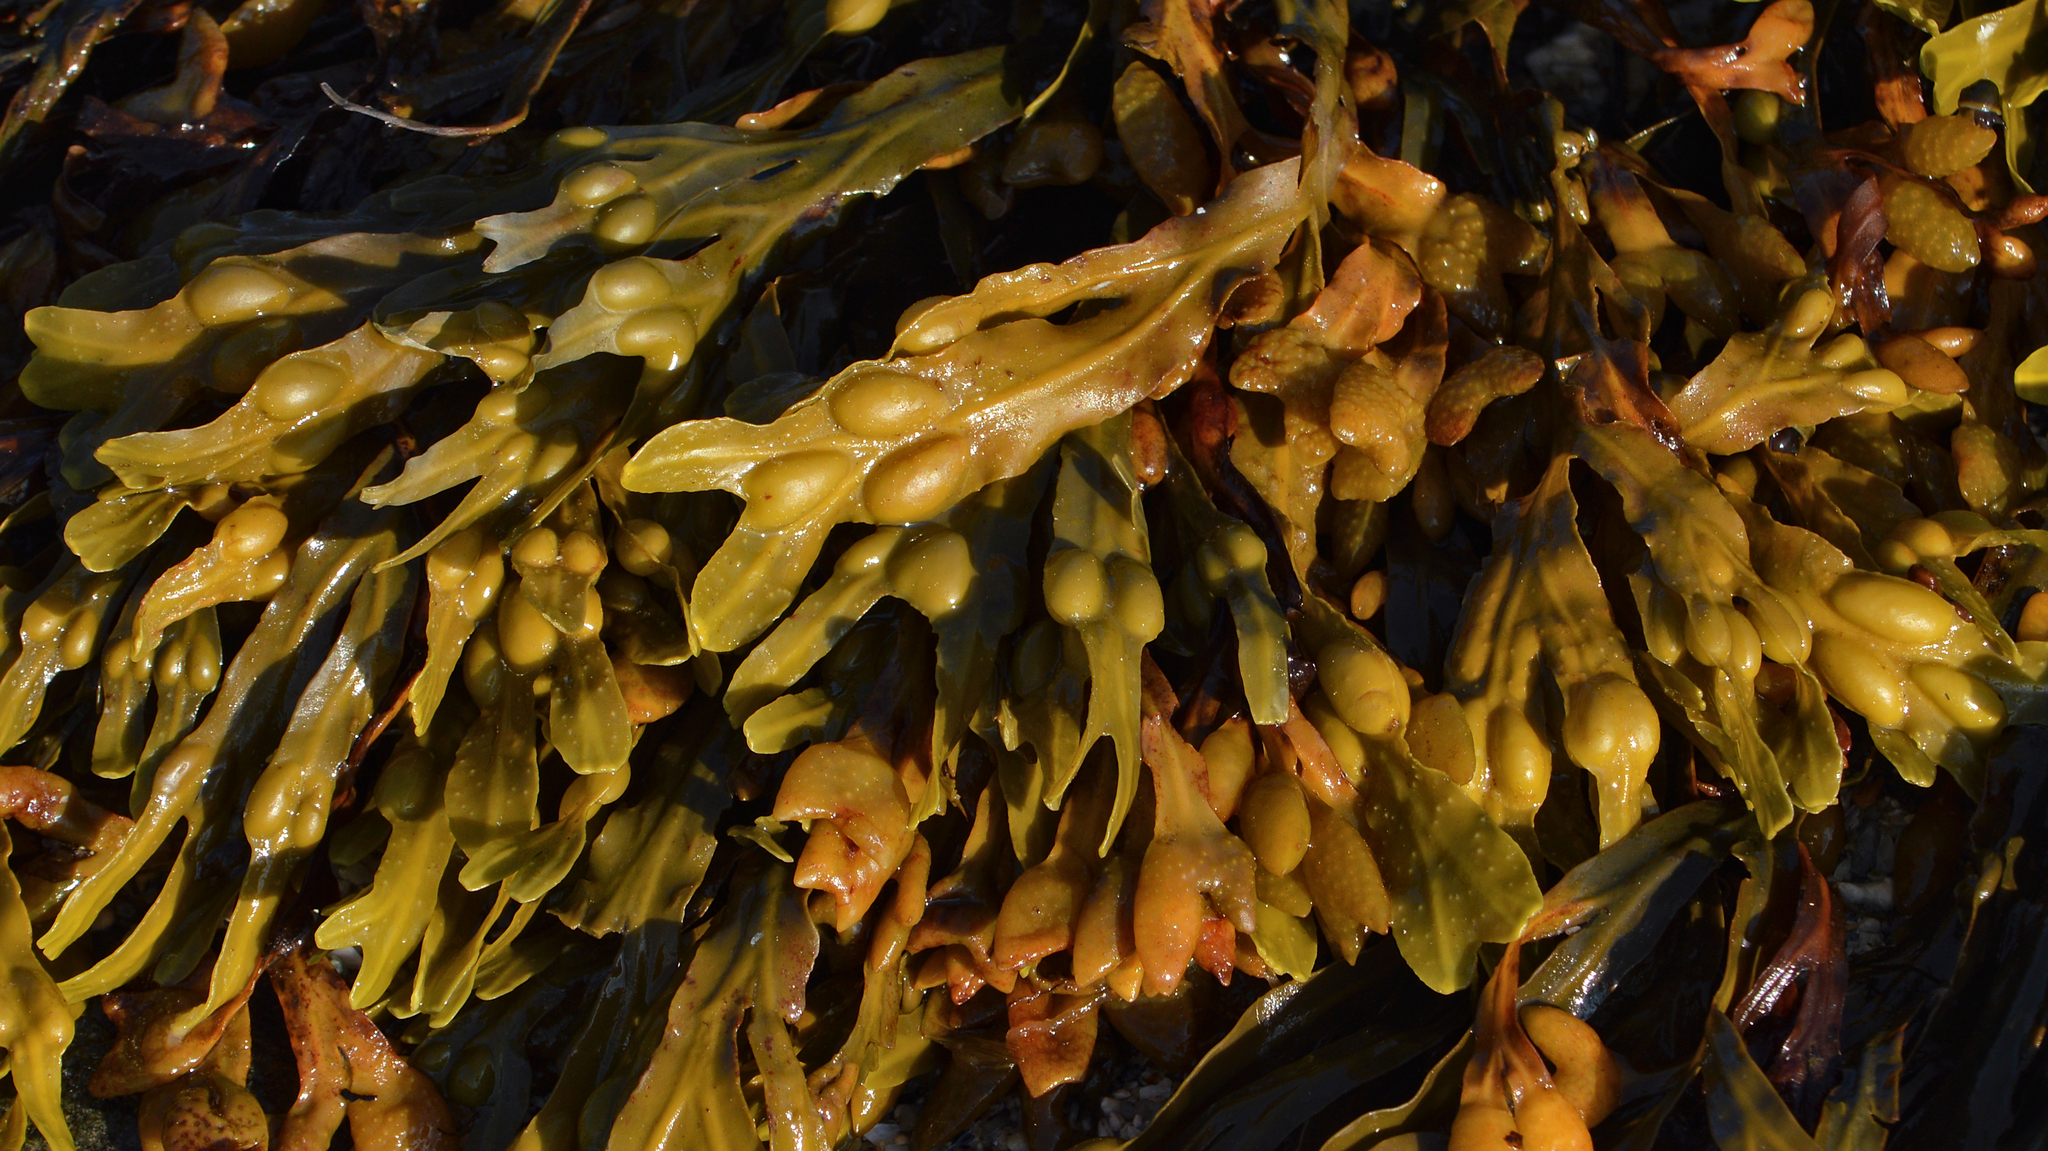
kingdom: Chromista
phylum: Ochrophyta
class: Phaeophyceae
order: Fucales
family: Fucaceae
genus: Fucus
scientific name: Fucus vesiculosus
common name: Bladder wrack
